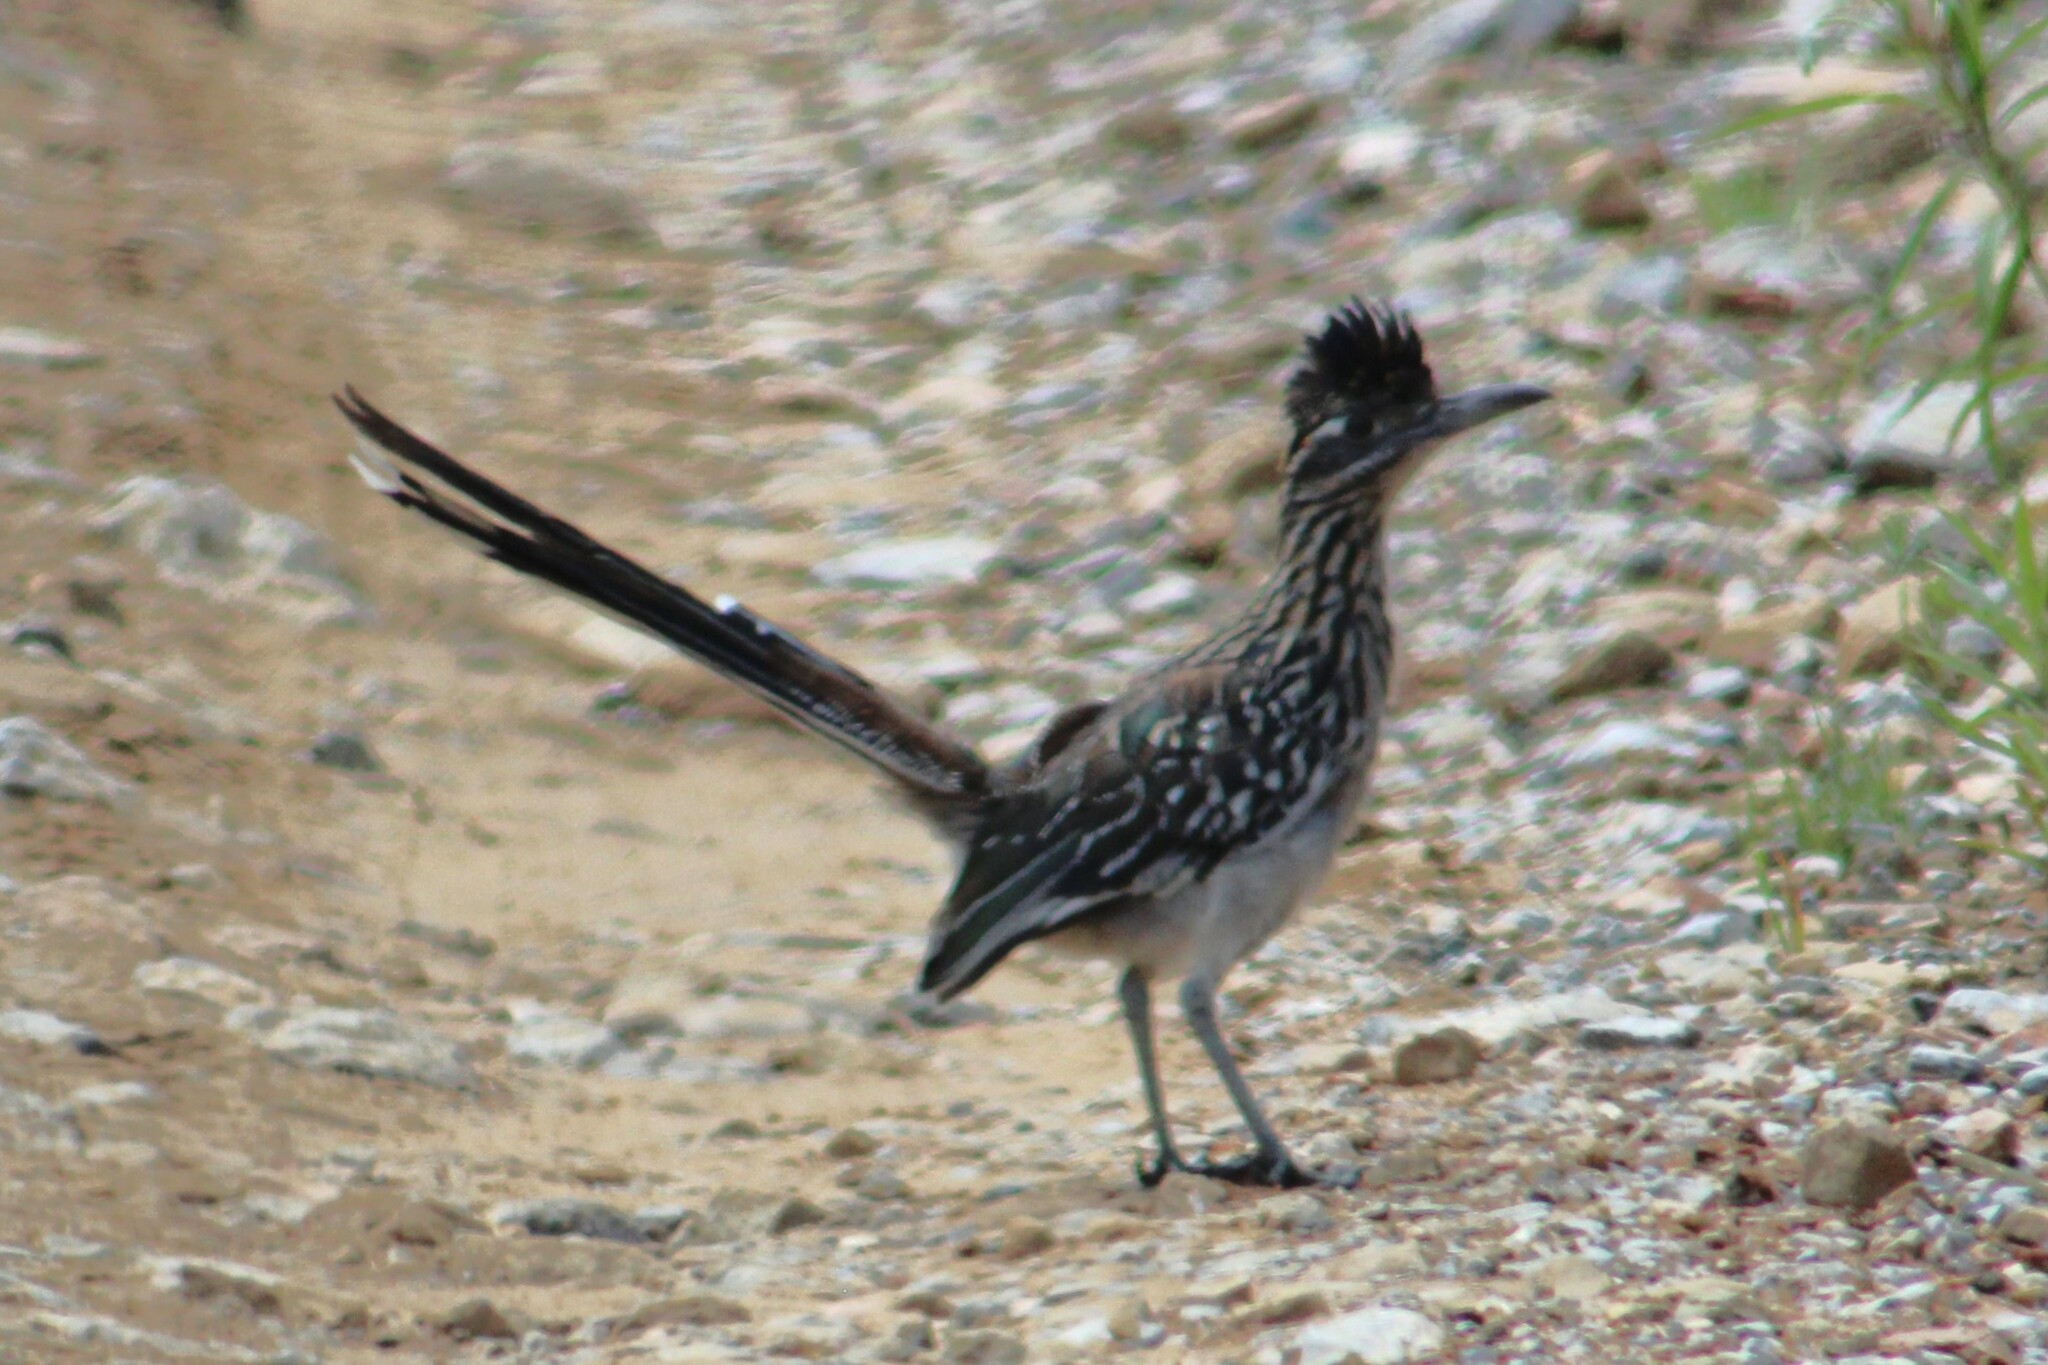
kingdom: Animalia
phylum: Chordata
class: Aves
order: Cuculiformes
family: Cuculidae
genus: Geococcyx
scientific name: Geococcyx californianus
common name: Greater roadrunner
